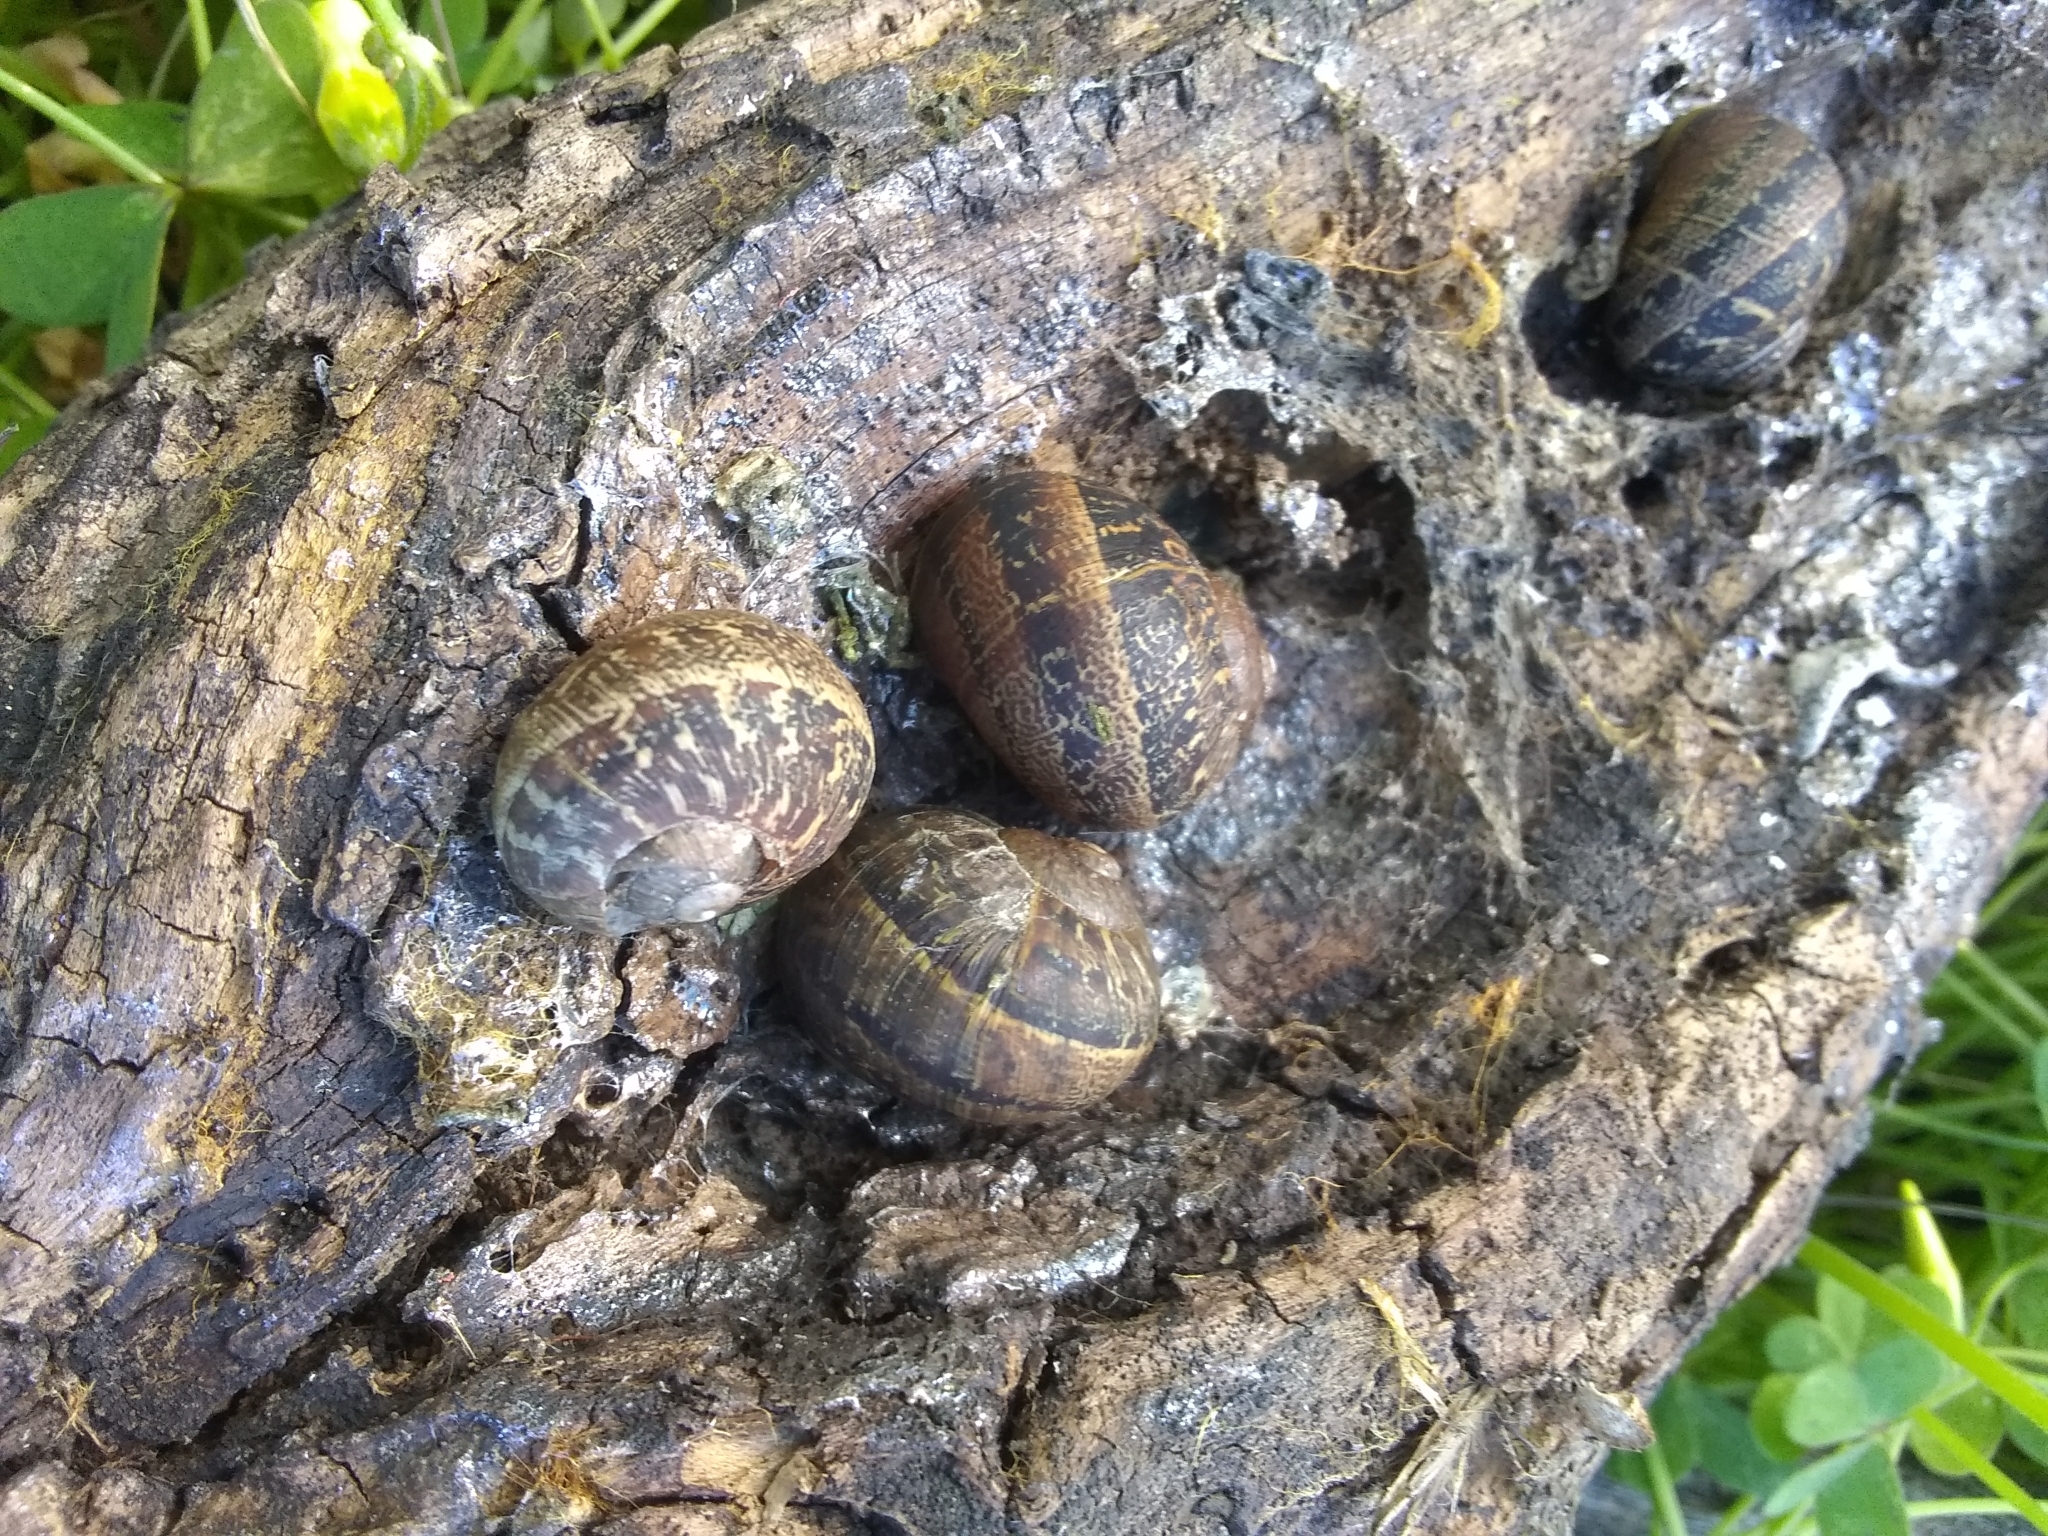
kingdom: Animalia
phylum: Mollusca
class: Gastropoda
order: Stylommatophora
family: Helicidae
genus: Cornu
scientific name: Cornu aspersum
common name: Brown garden snail
